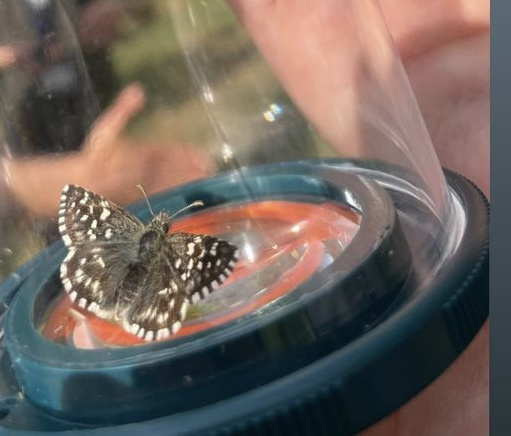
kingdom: Animalia
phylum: Arthropoda
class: Insecta
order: Lepidoptera
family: Hesperiidae
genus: Pyrgus
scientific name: Pyrgus malvoides
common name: Southern grizzled skipper
